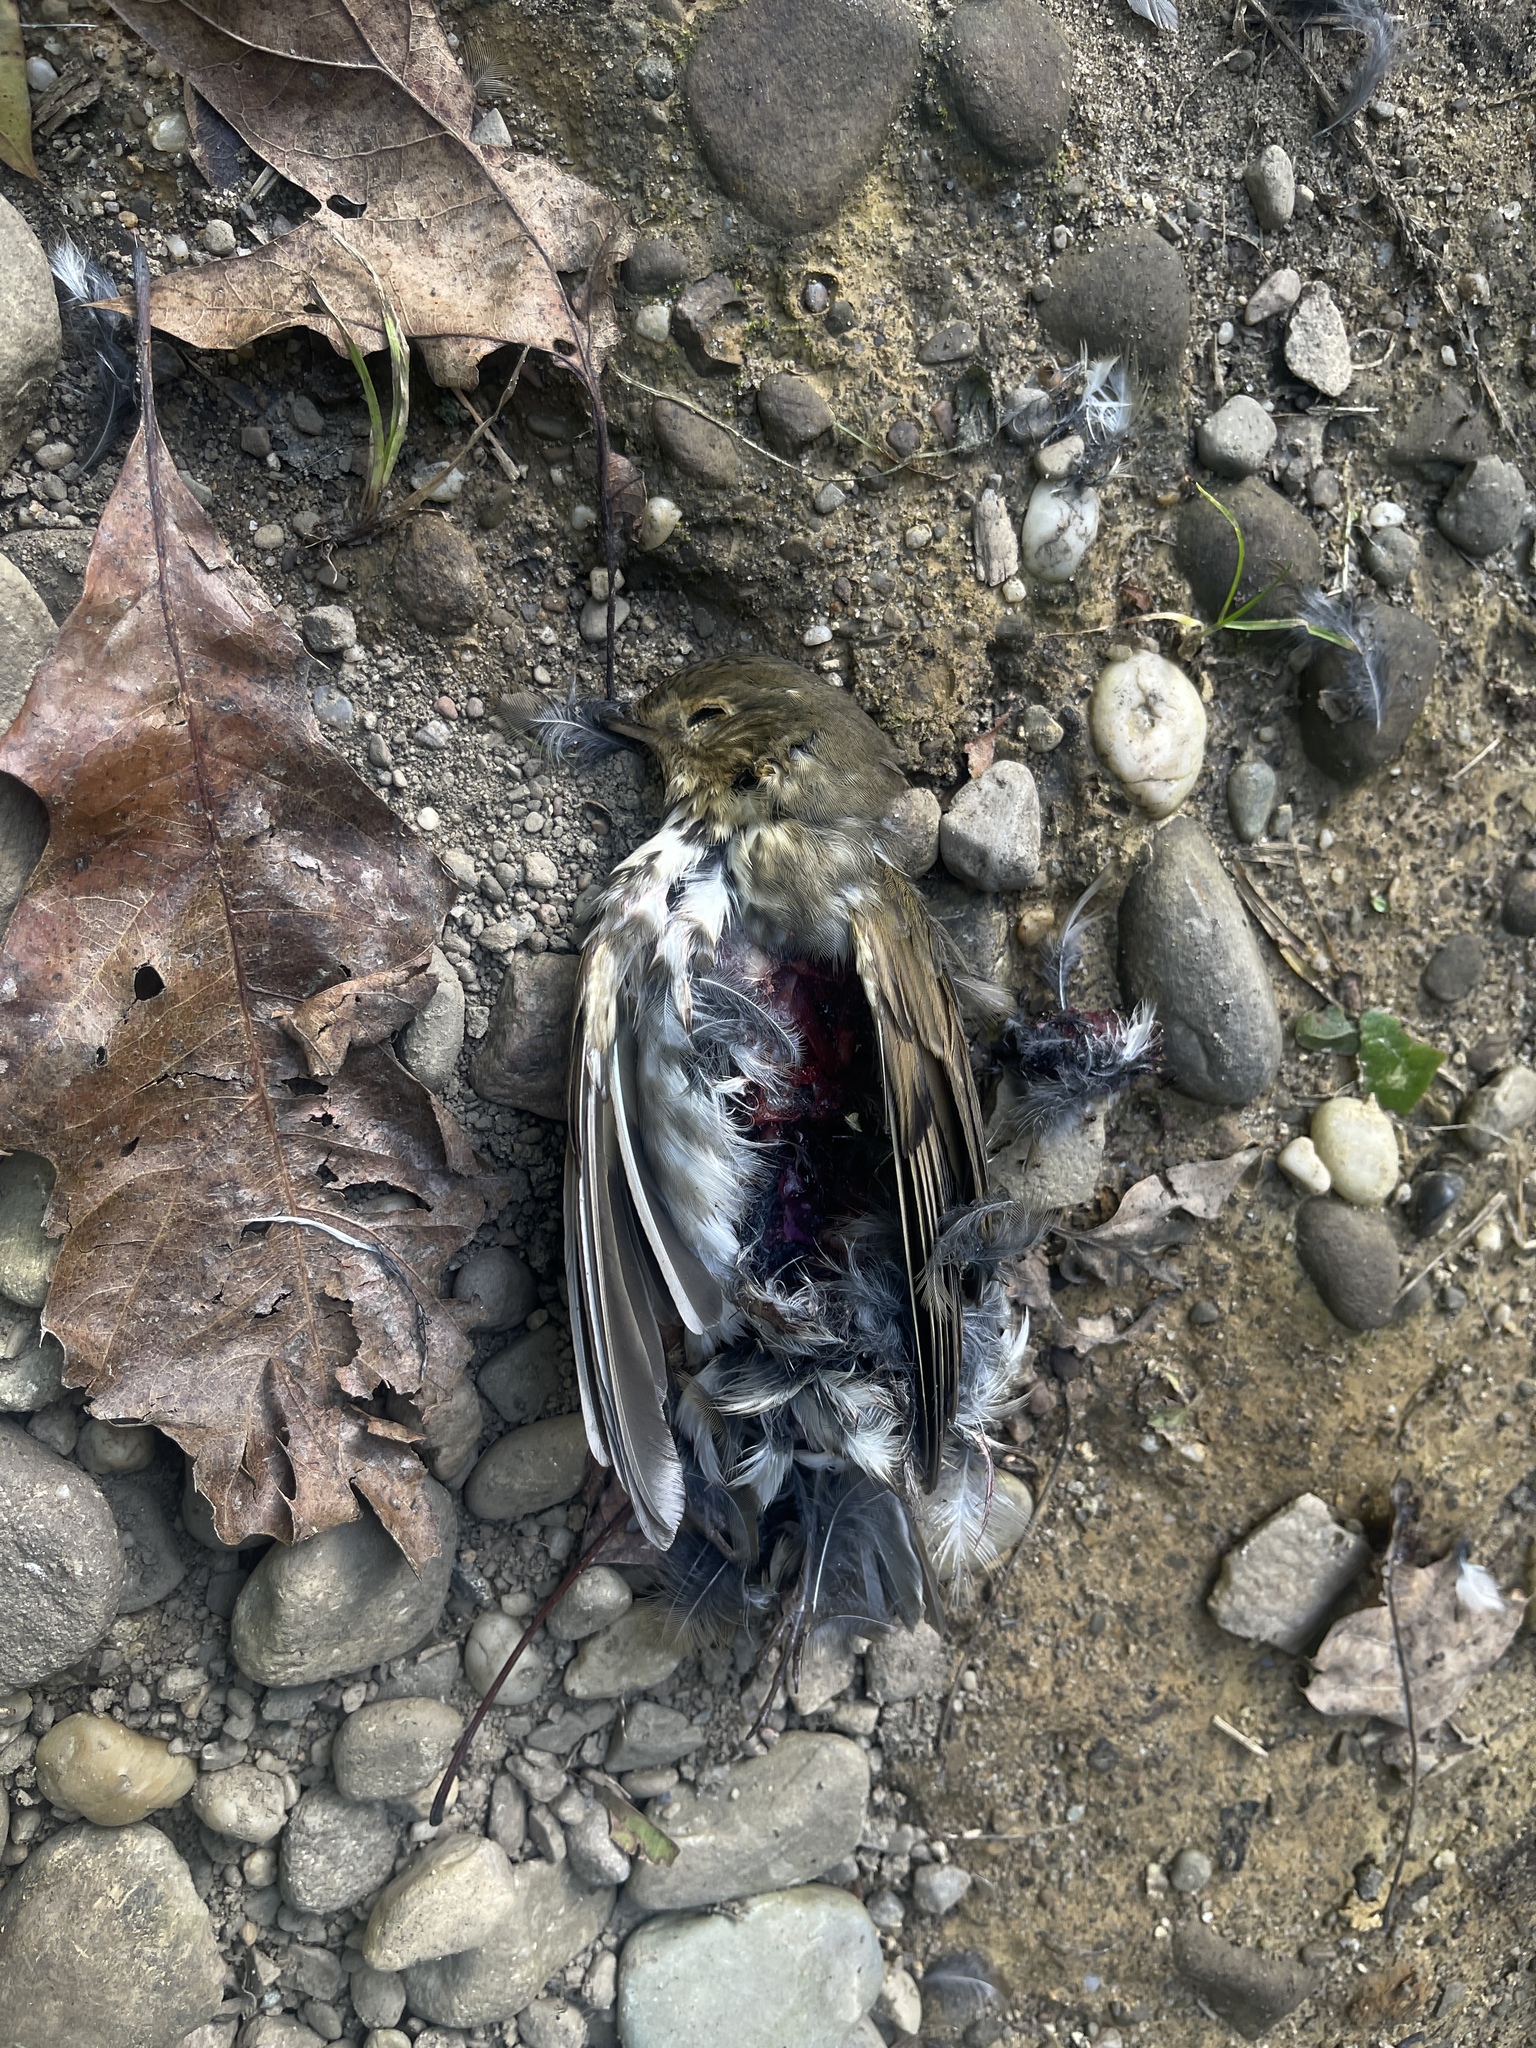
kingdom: Animalia
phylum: Chordata
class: Aves
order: Passeriformes
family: Turdidae
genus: Catharus
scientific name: Catharus ustulatus
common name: Swainson's thrush
